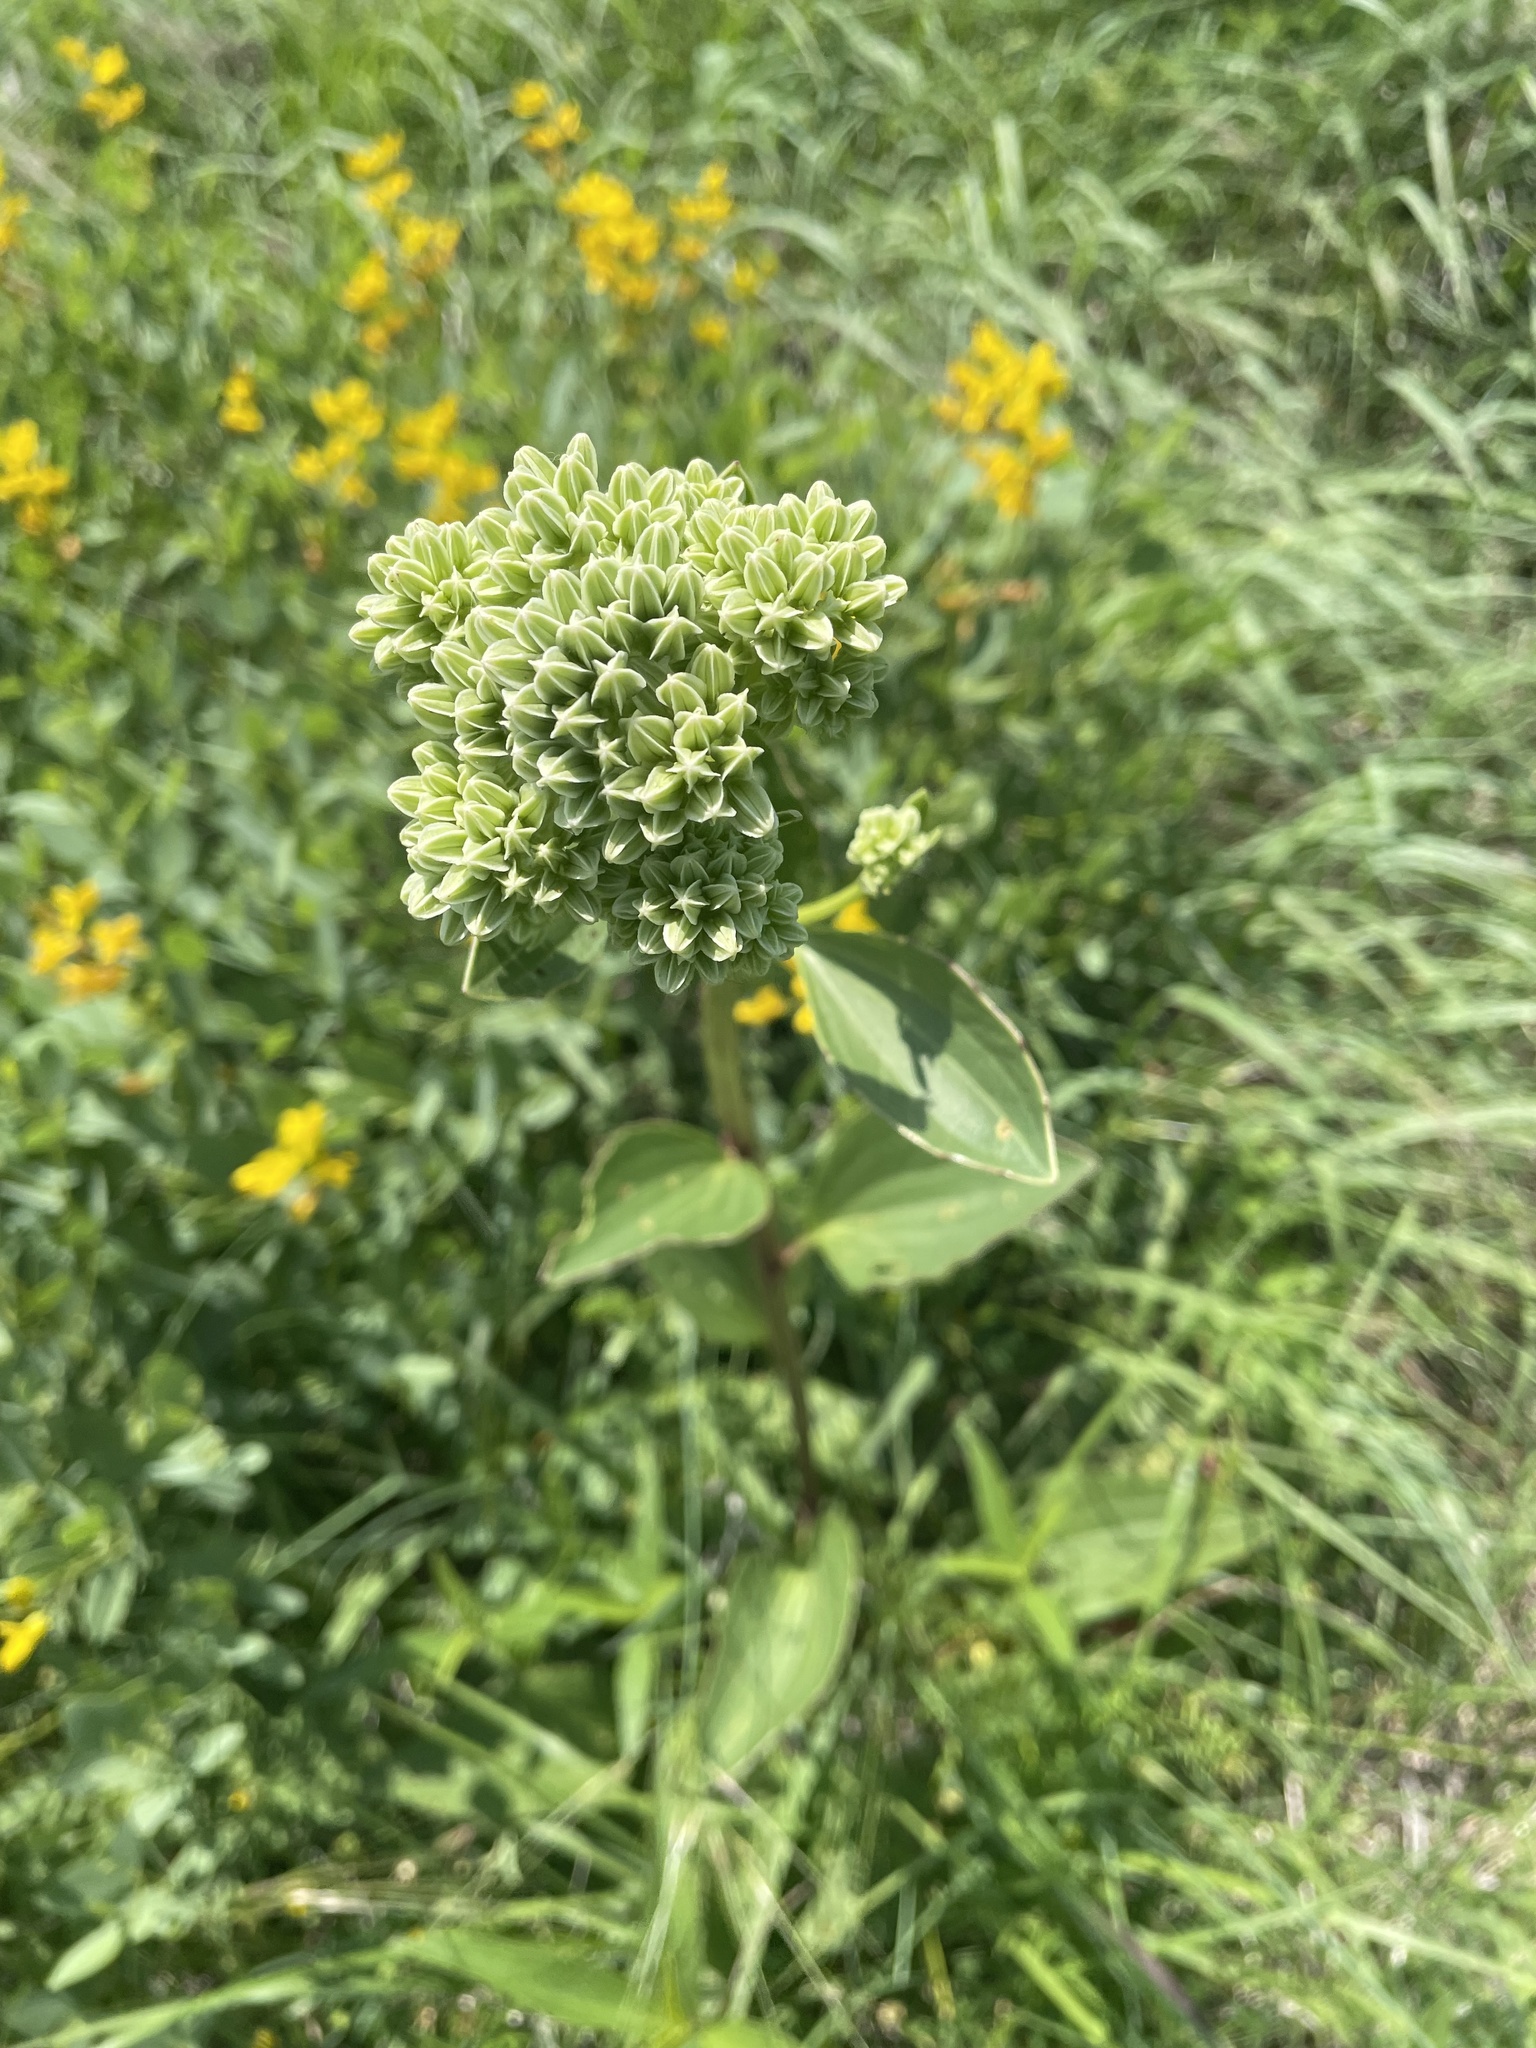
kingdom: Plantae
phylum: Tracheophyta
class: Magnoliopsida
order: Asterales
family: Asteraceae
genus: Arnoglossum
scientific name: Arnoglossum plantagineum
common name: Groove-stemmed indian-plantain
